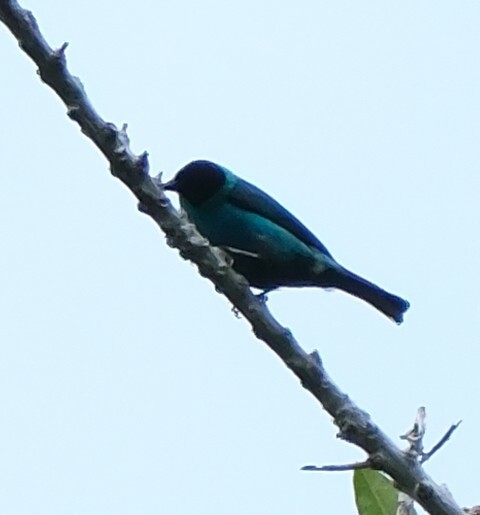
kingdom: Animalia
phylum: Chordata
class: Aves
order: Passeriformes
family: Thraupidae
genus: Chlorophanes
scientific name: Chlorophanes spiza
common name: Green honeycreeper
